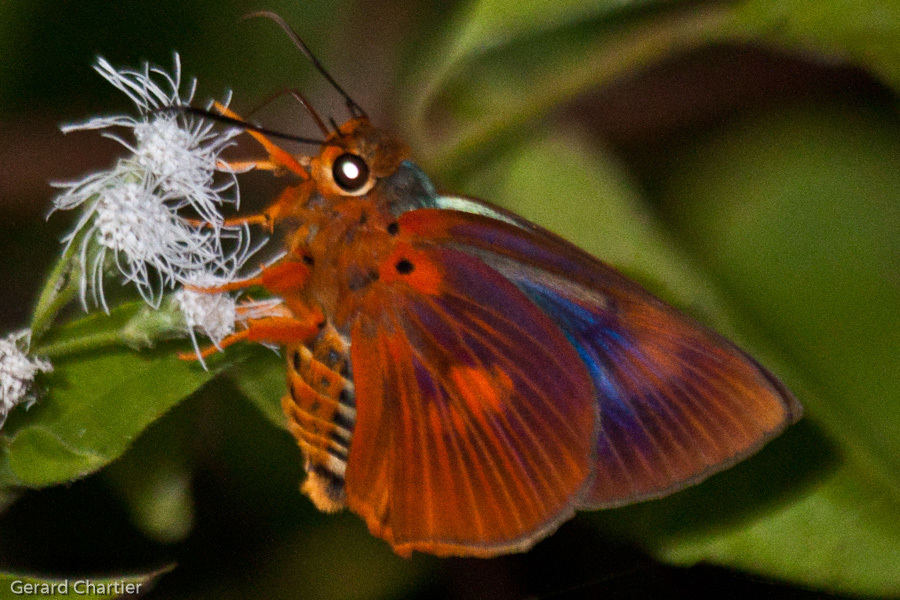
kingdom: Animalia
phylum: Arthropoda
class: Insecta
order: Lepidoptera
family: Hesperiidae
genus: Bibasis
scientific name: Bibasis etelka
